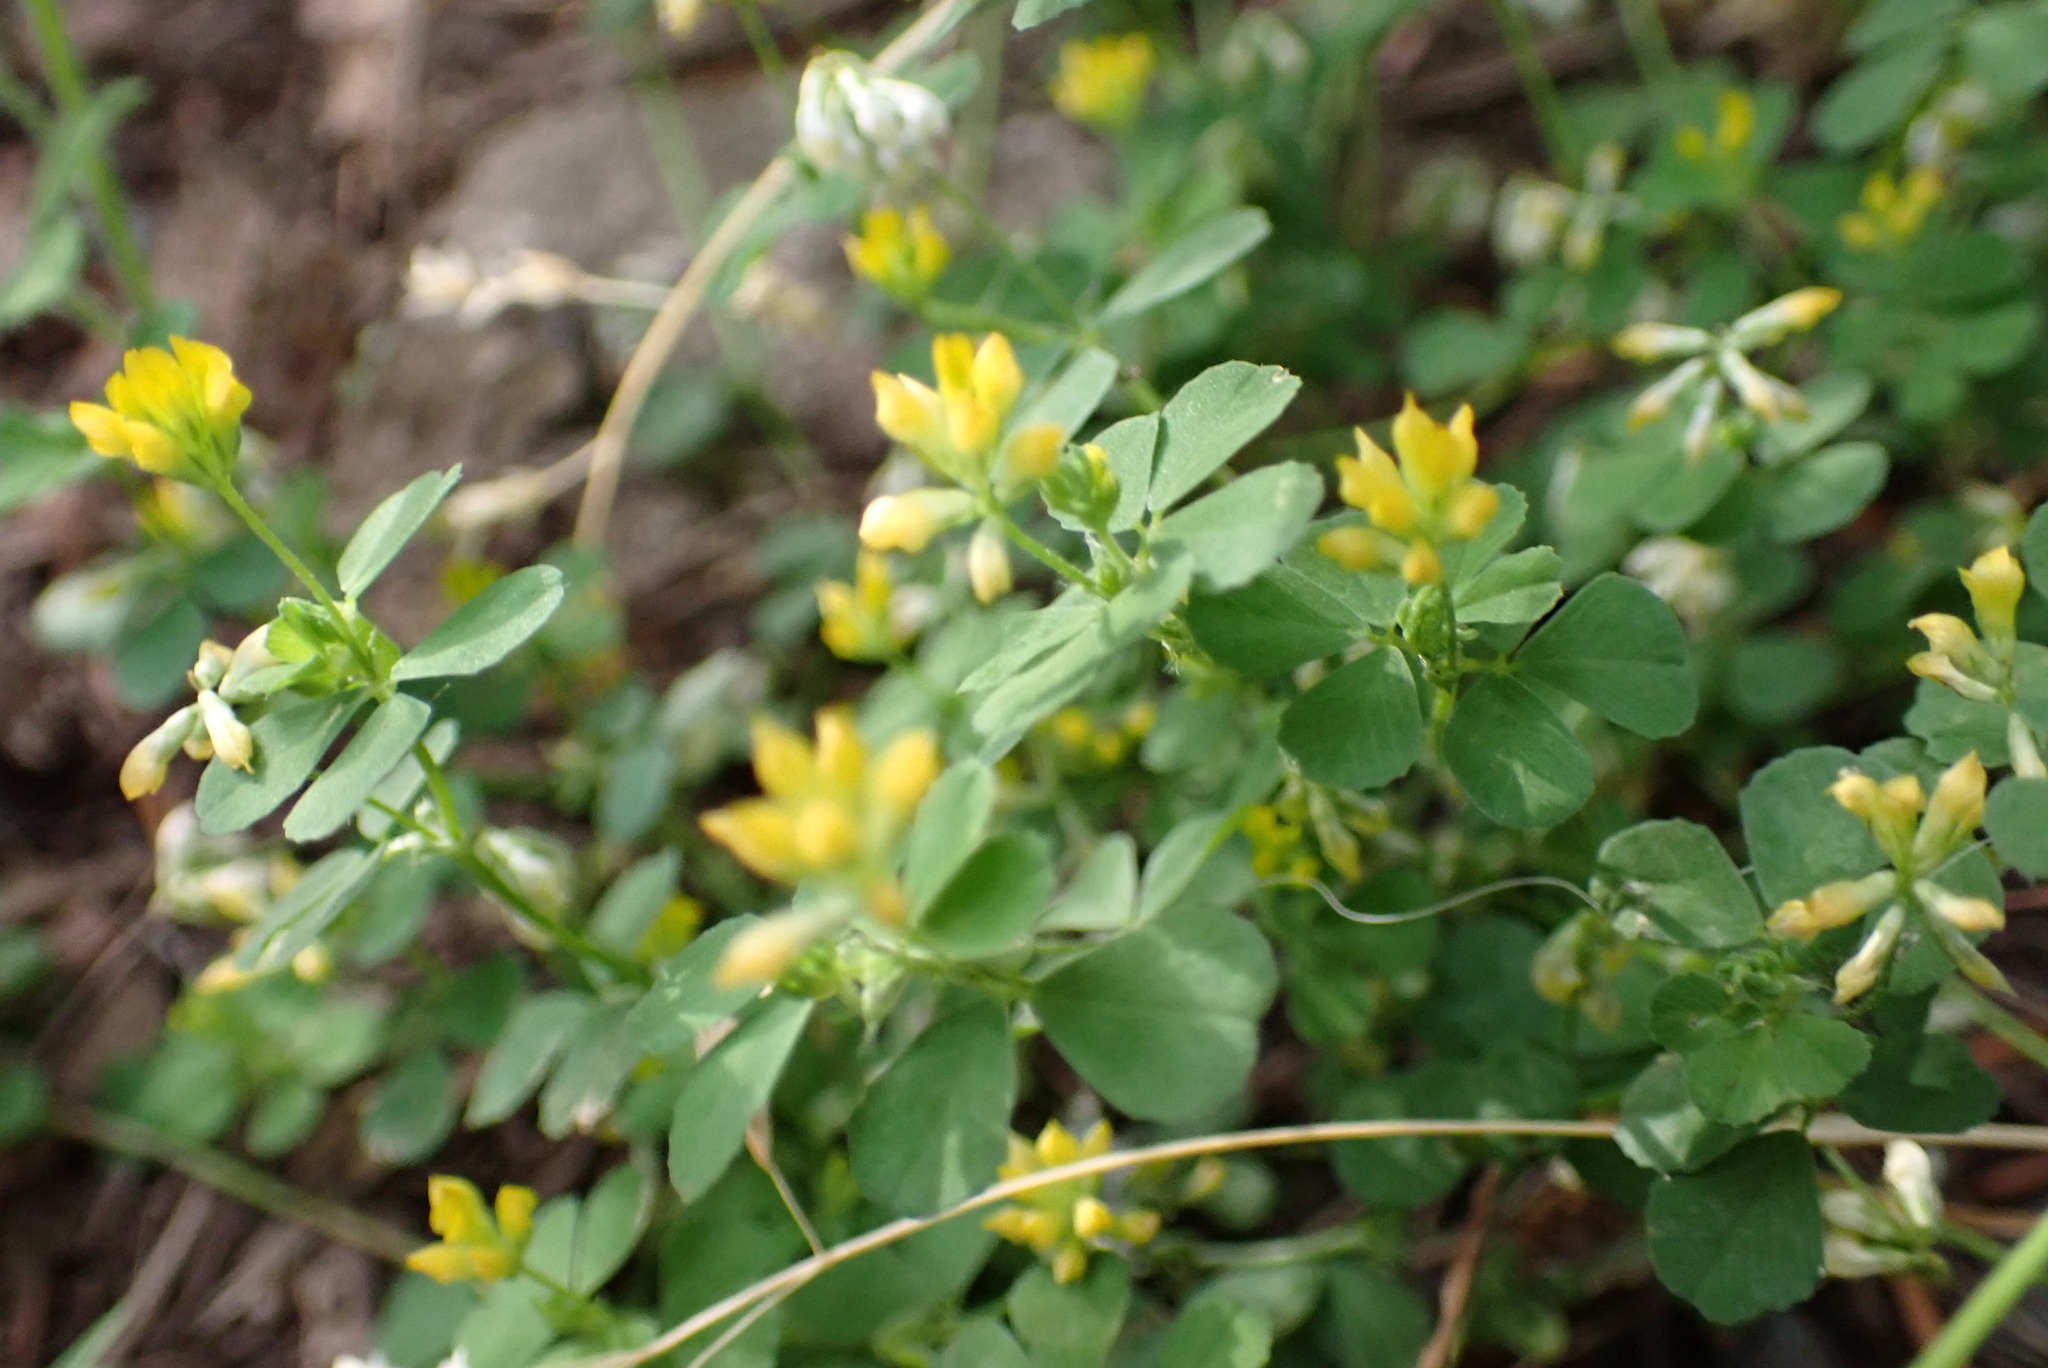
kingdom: Plantae
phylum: Tracheophyta
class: Magnoliopsida
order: Fabales
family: Fabaceae
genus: Trifolium
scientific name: Trifolium dubium
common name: Suckling clover
